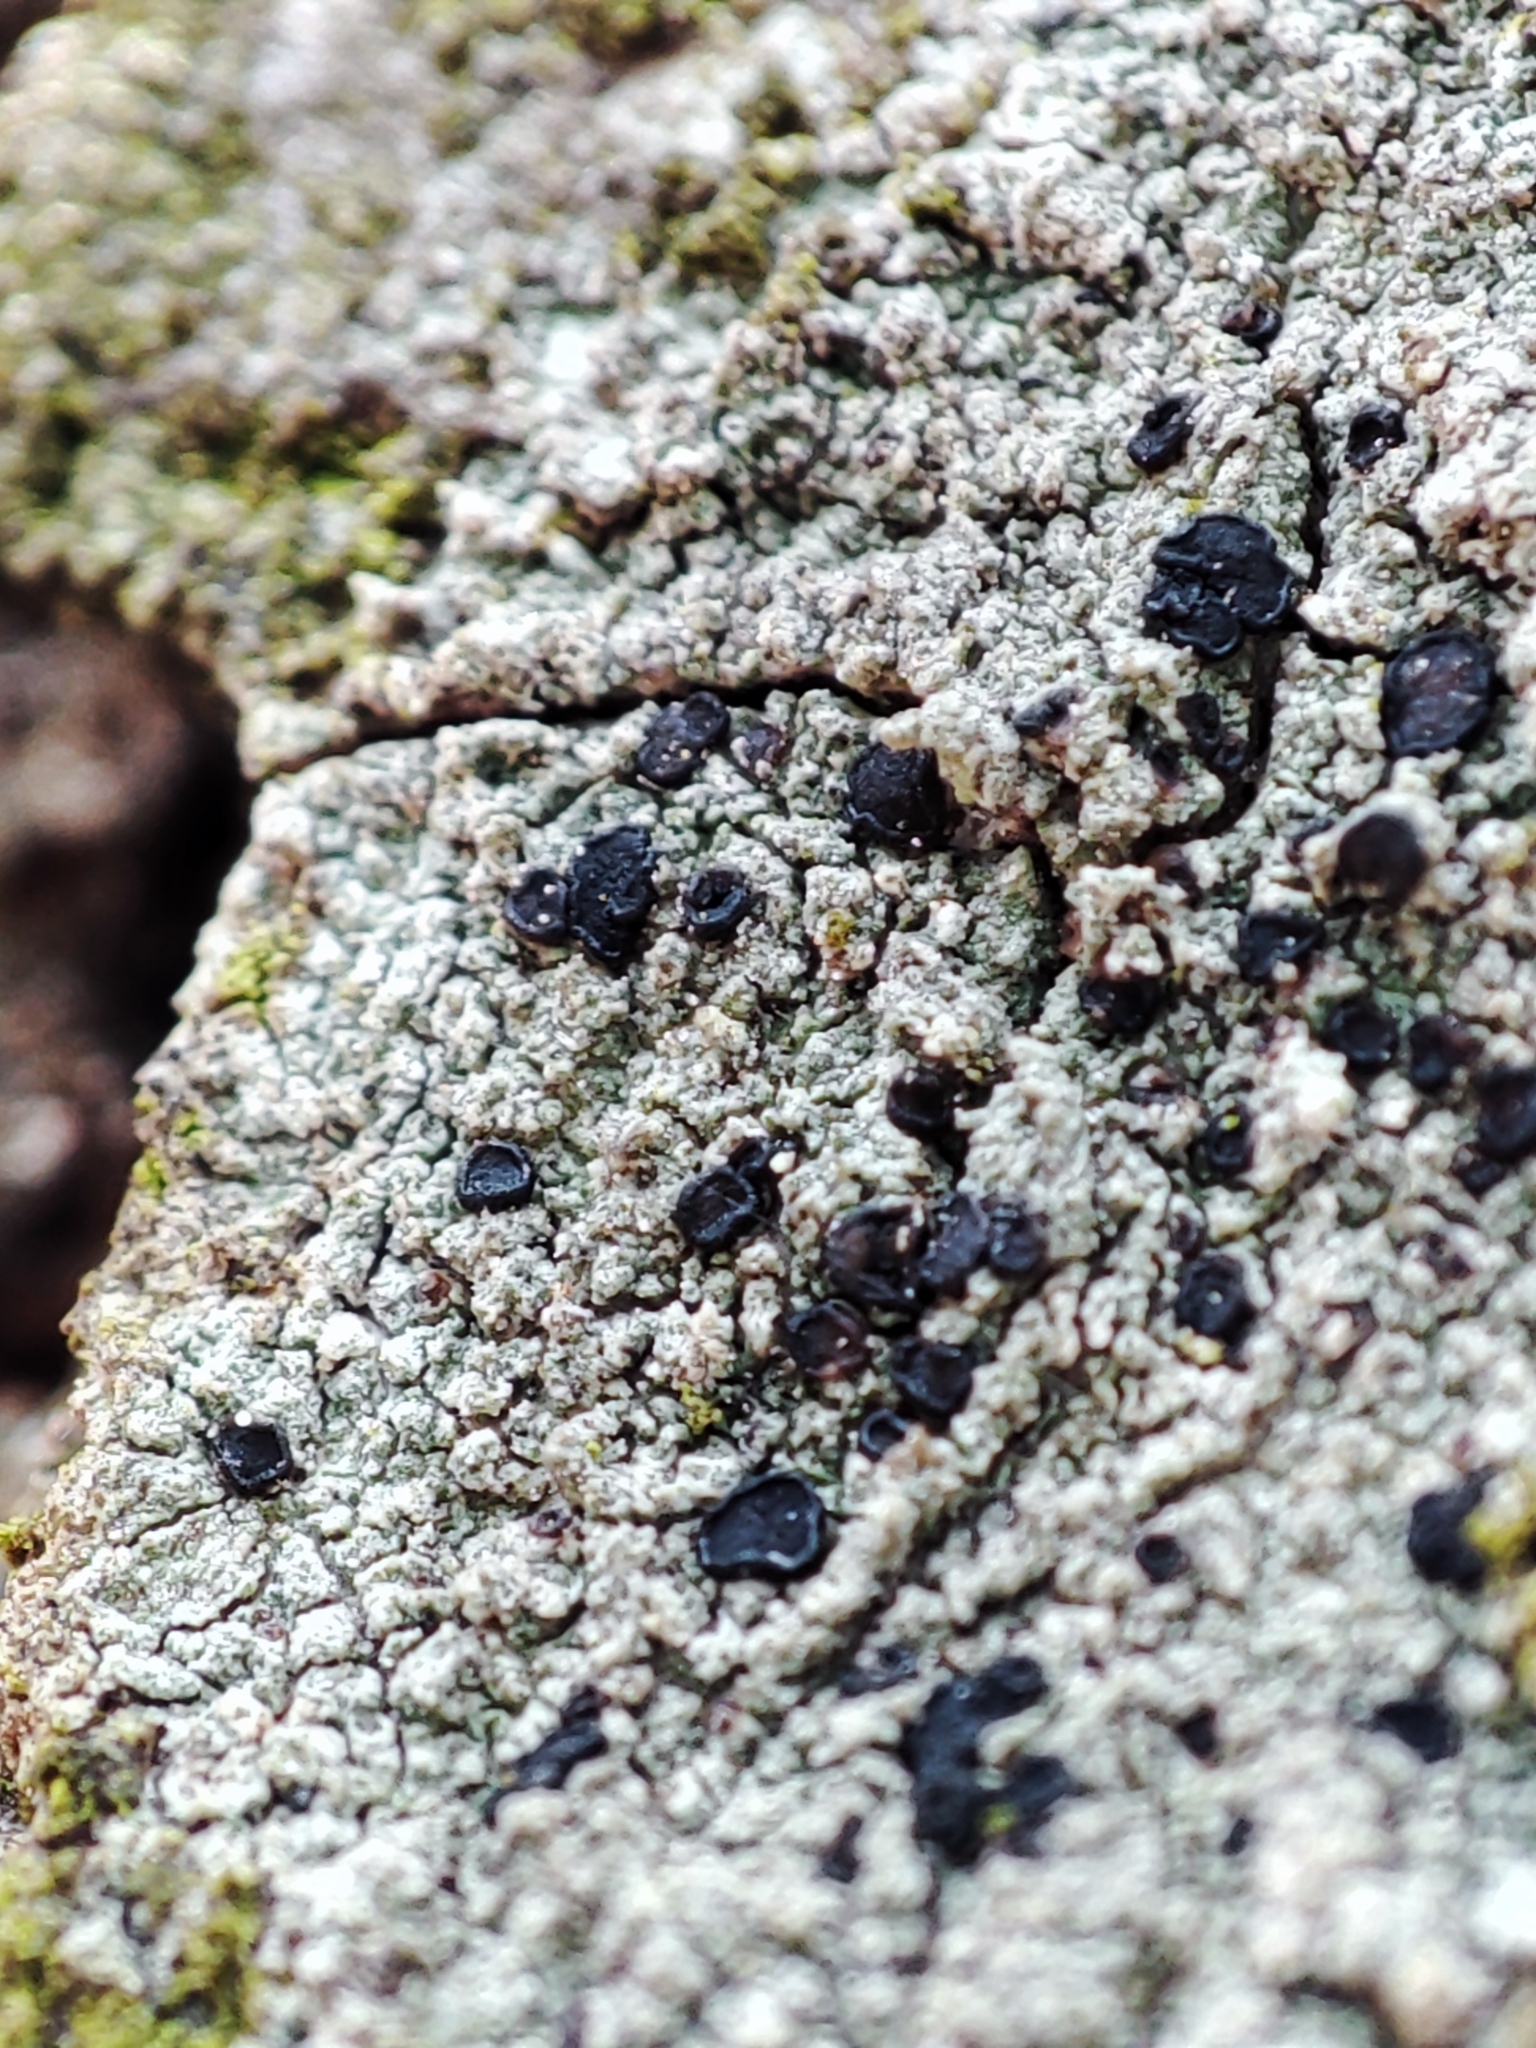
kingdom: Fungi
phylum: Ascomycota
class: Lecanoromycetes
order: Lecanorales
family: Lecanoraceae
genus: Lecidella
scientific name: Lecidella elaeochroma
